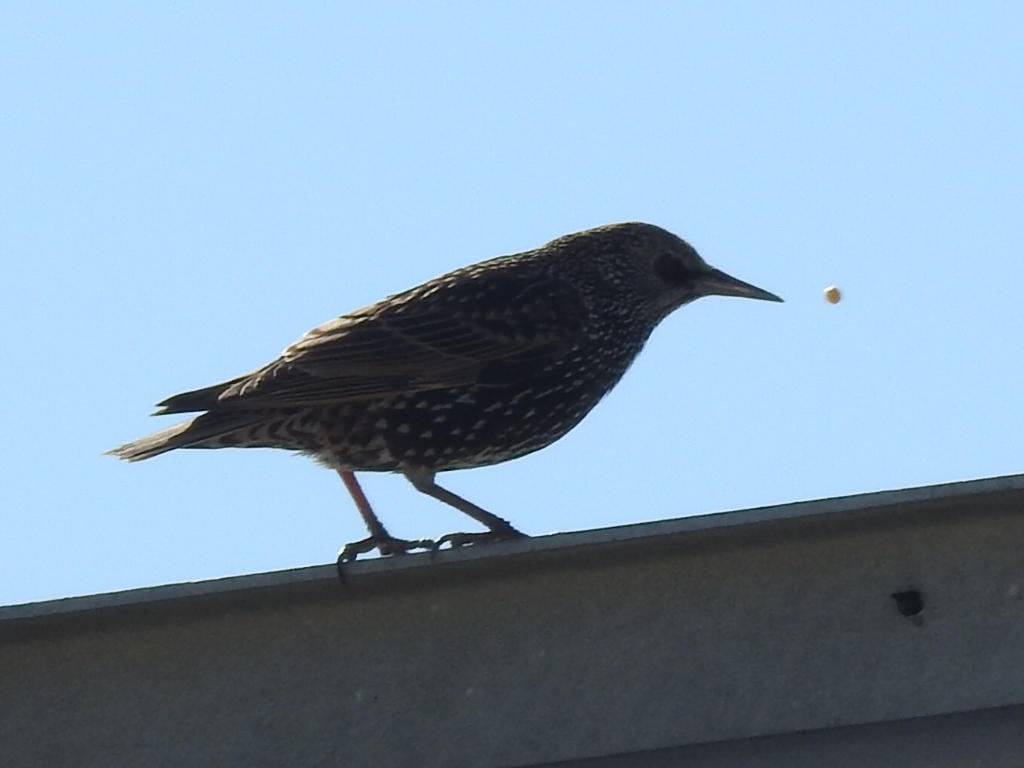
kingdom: Animalia
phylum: Chordata
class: Aves
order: Passeriformes
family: Sturnidae
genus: Sturnus
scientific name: Sturnus vulgaris
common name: Common starling
